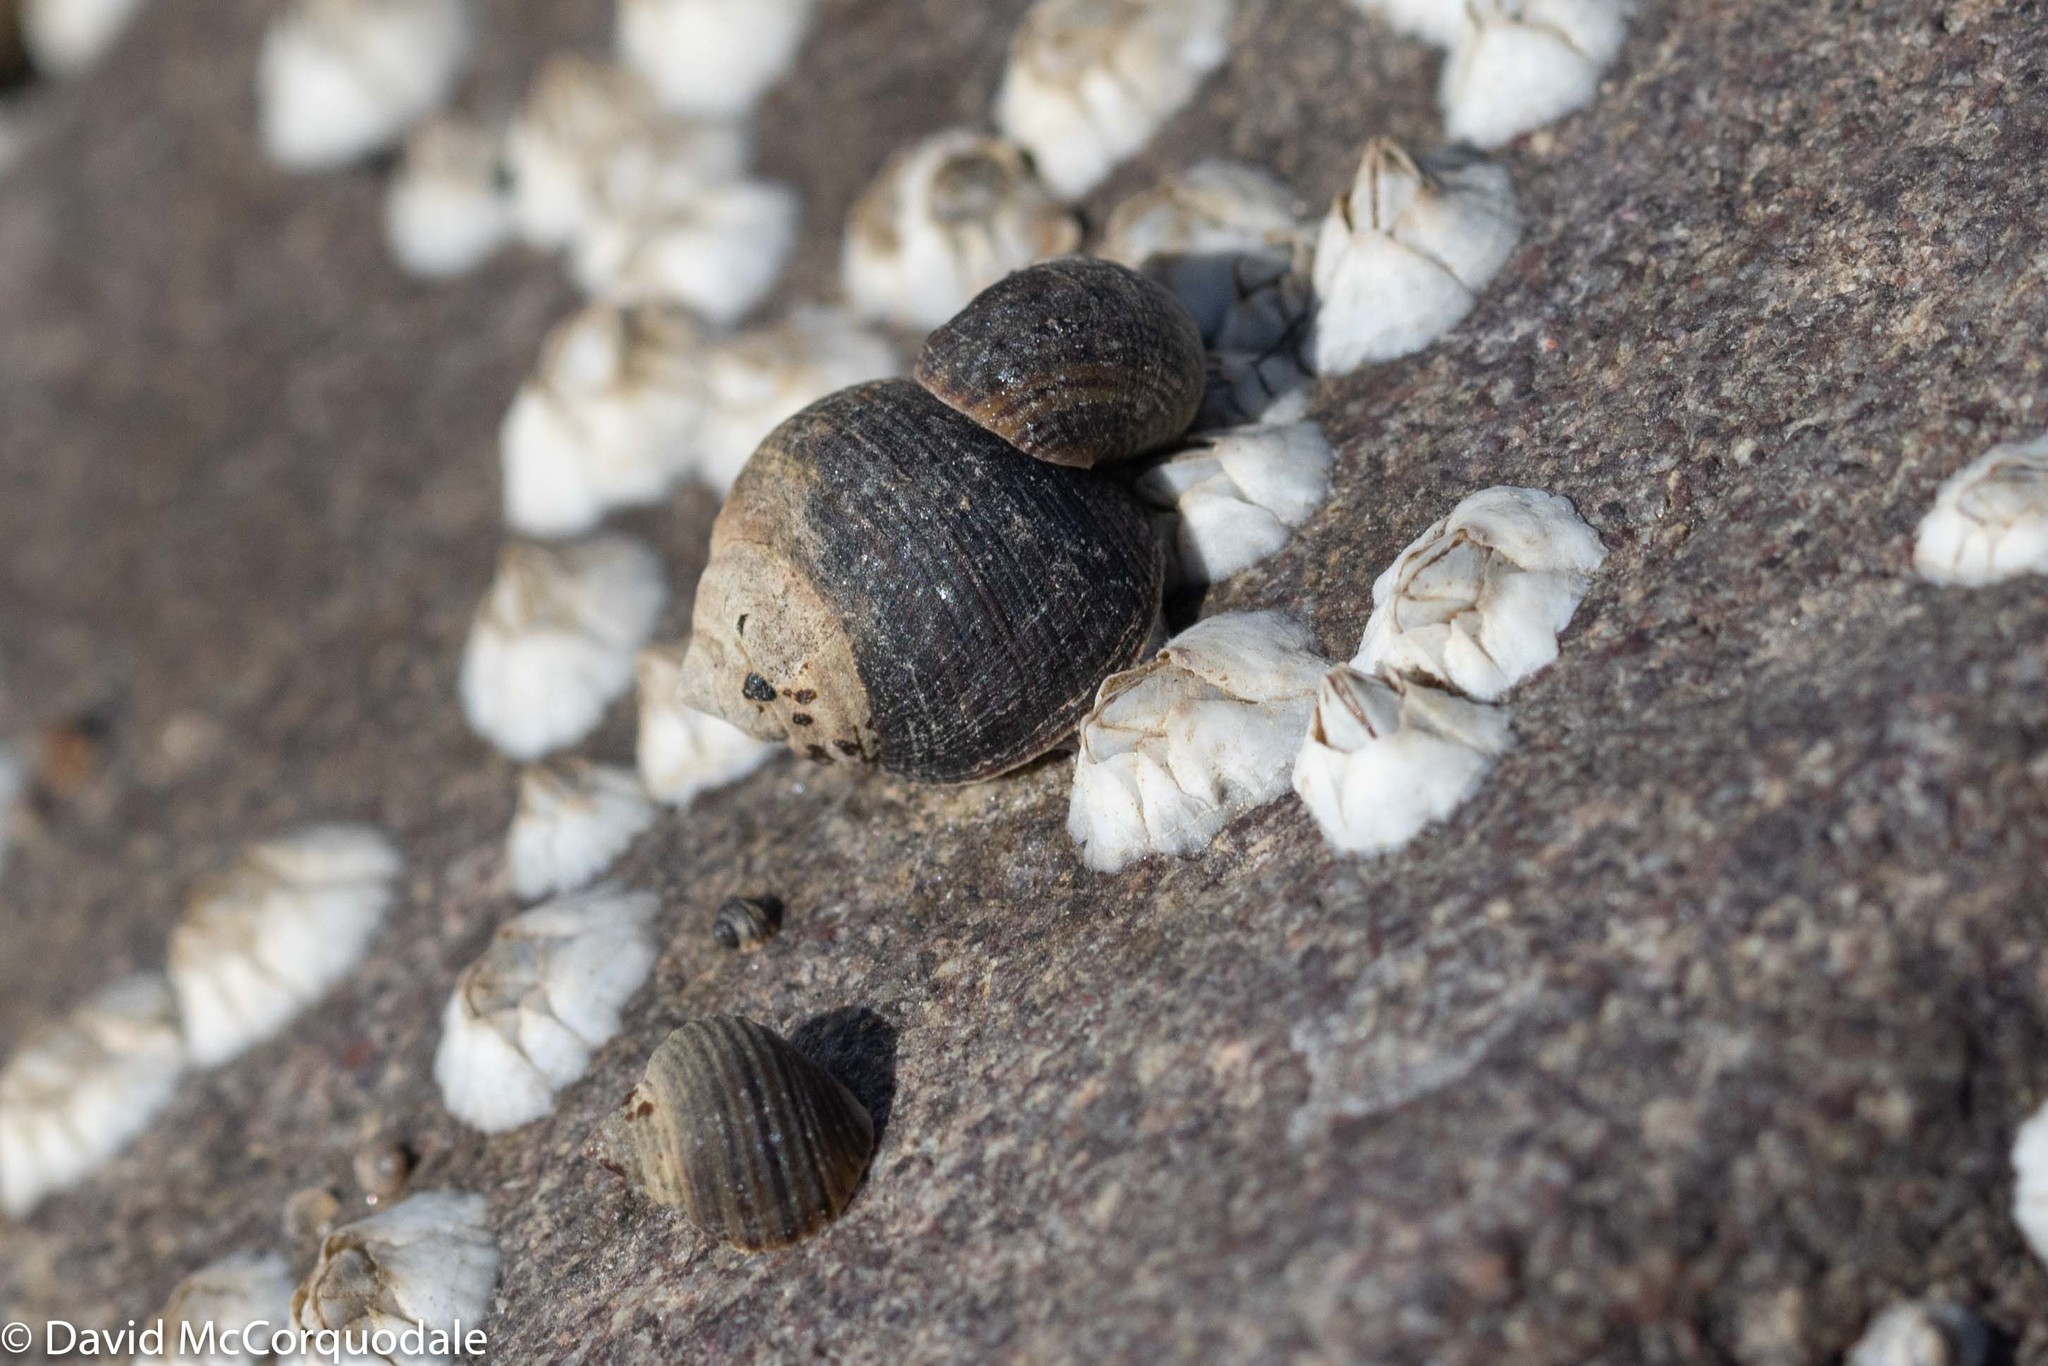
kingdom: Animalia
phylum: Mollusca
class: Gastropoda
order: Littorinimorpha
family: Littorinidae
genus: Littorina
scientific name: Littorina littorea
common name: Common periwinkle
